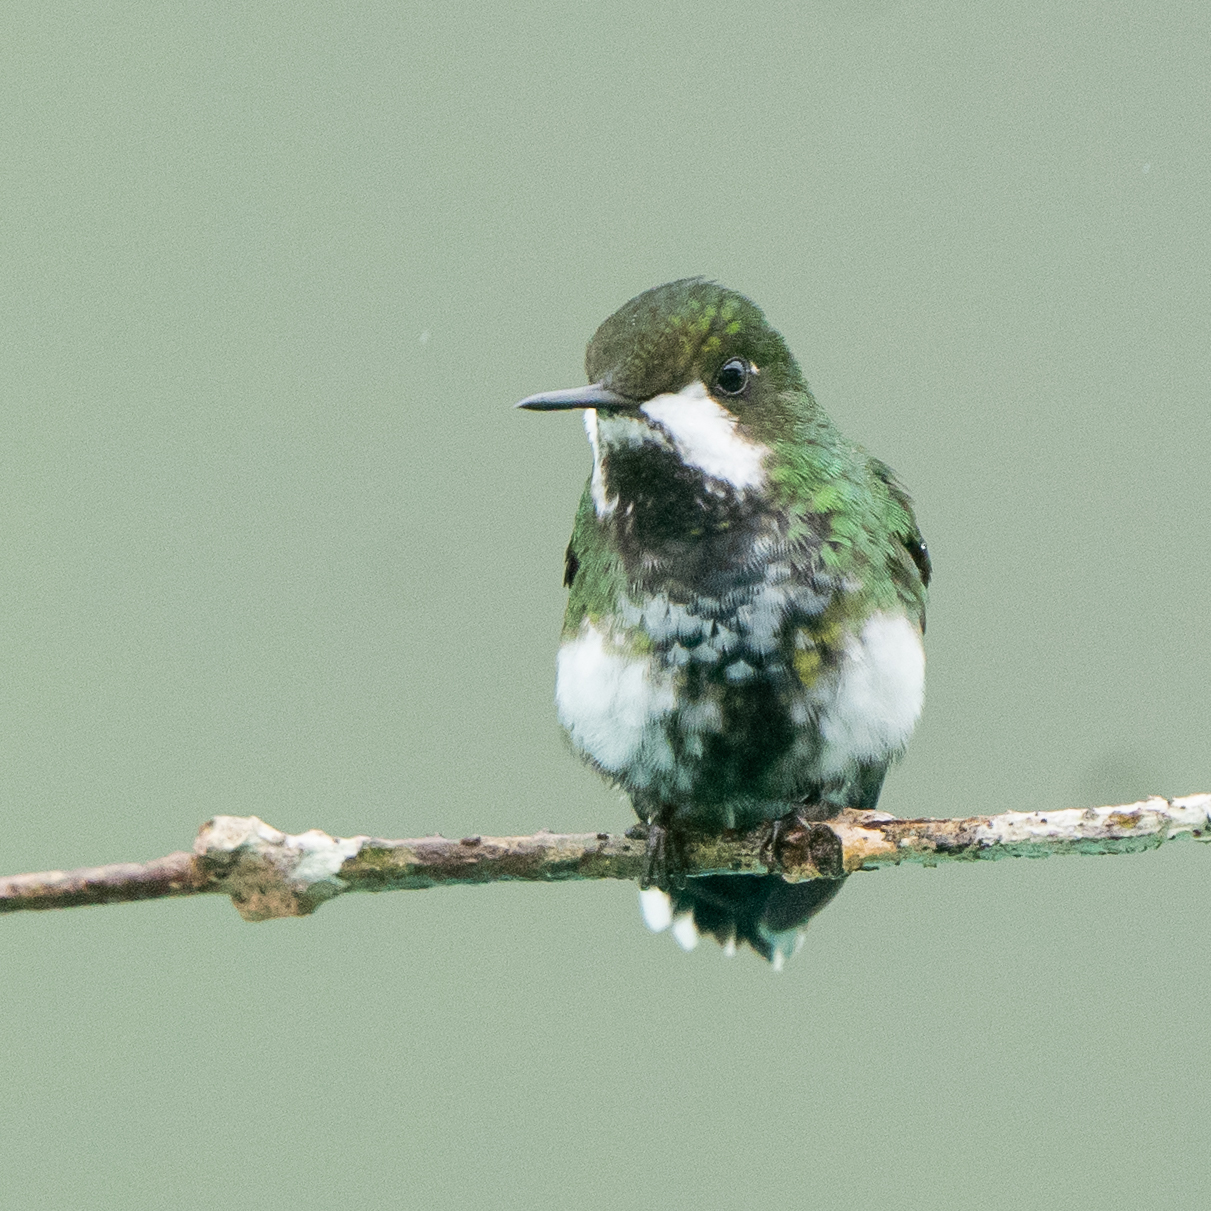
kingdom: Animalia
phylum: Chordata
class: Aves
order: Apodiformes
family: Trochilidae
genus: Discosura
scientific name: Discosura conversii
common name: Green thorntail
